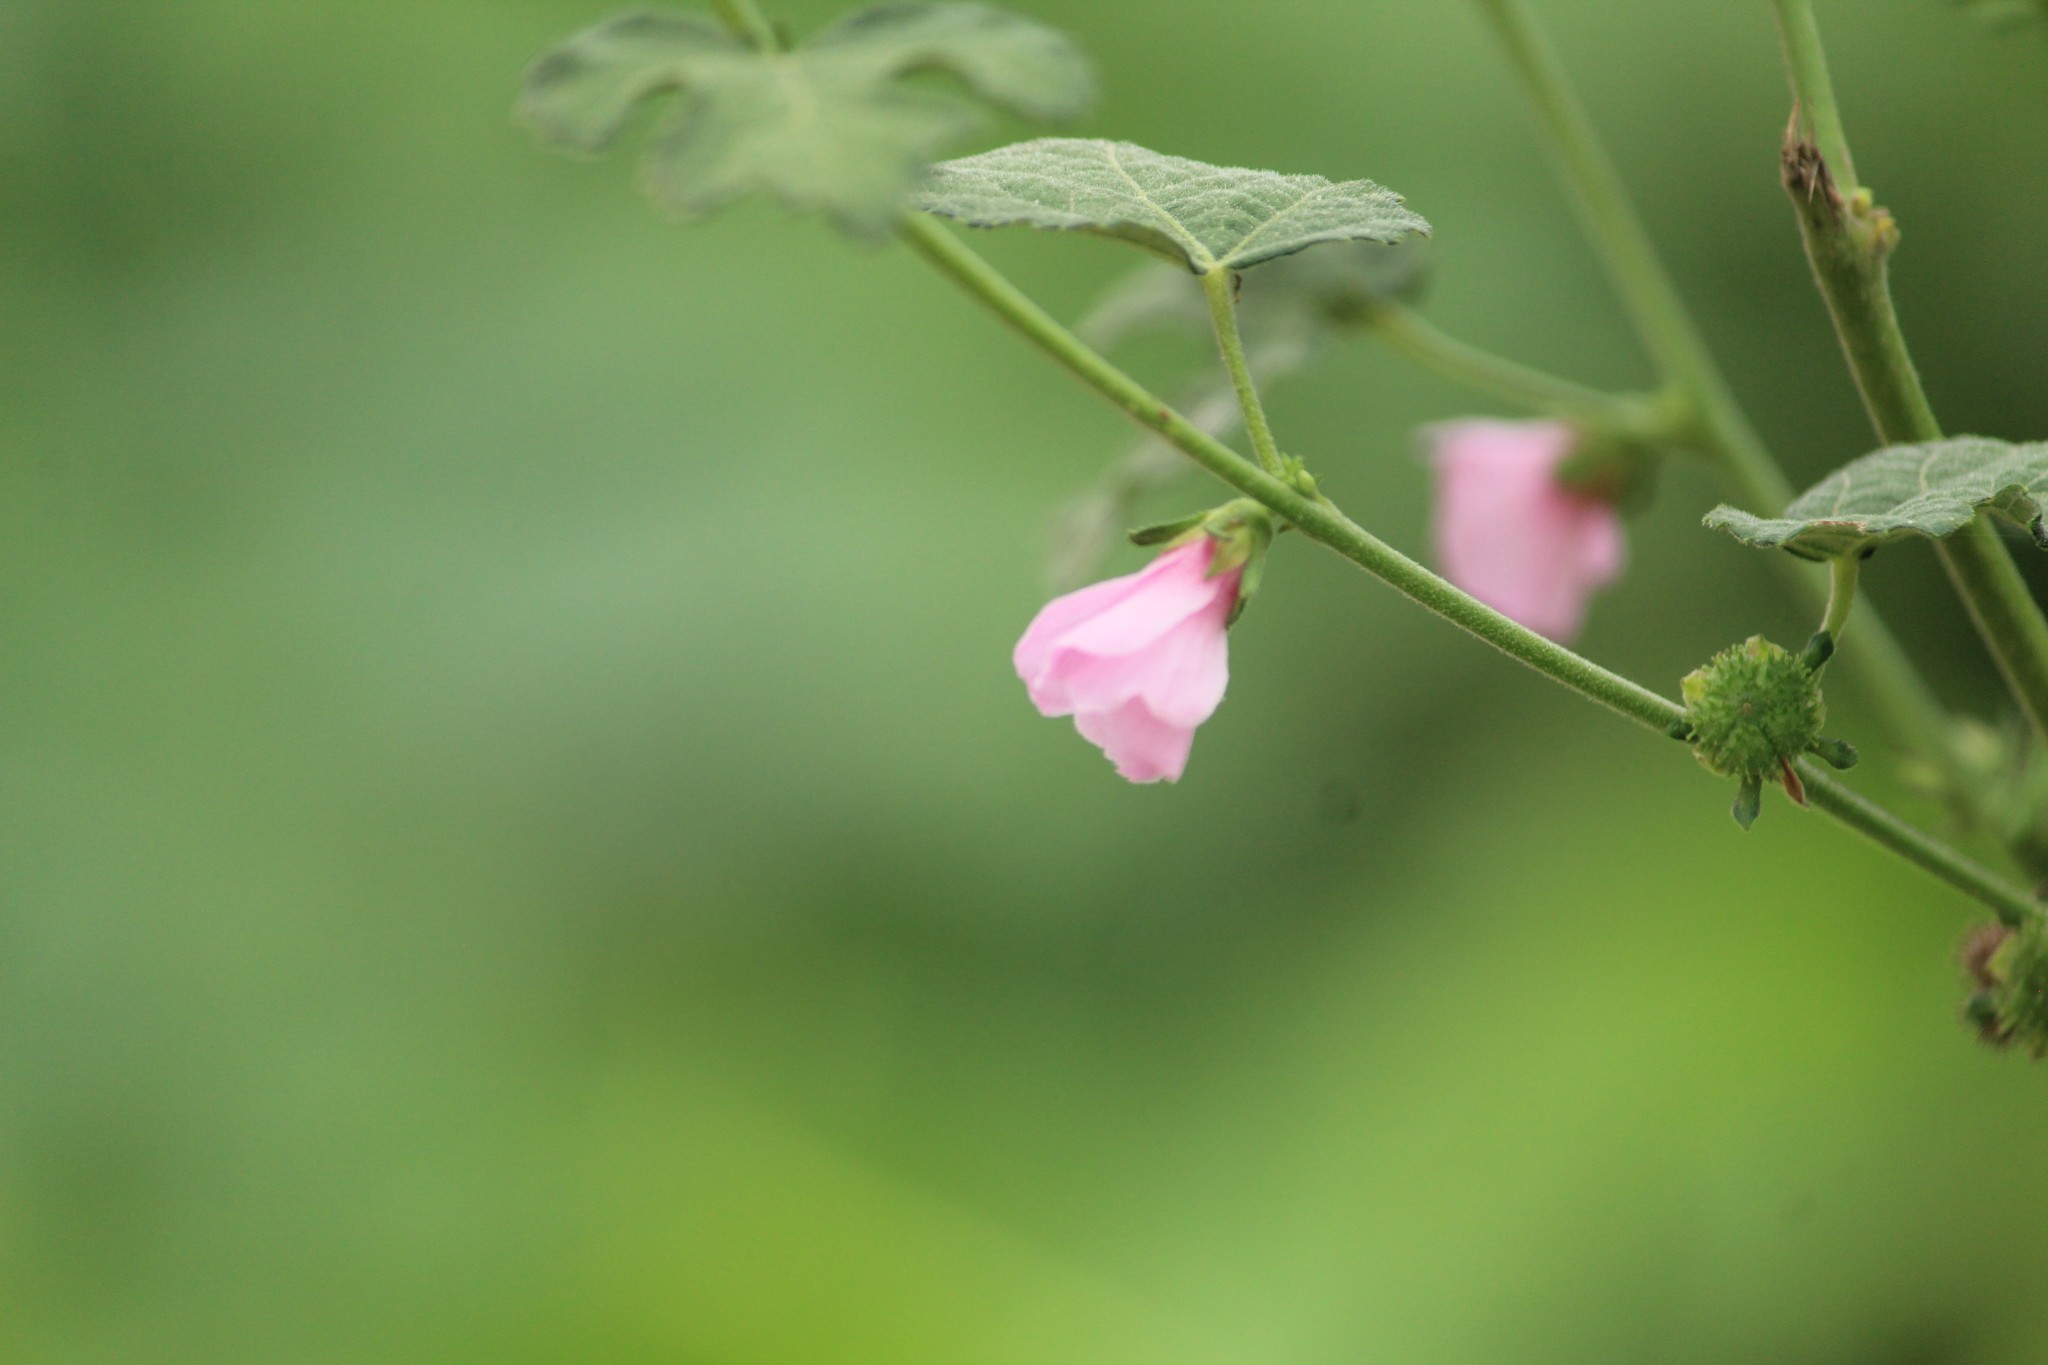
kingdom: Plantae
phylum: Tracheophyta
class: Magnoliopsida
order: Malvales
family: Malvaceae
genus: Urena
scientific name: Urena lobata
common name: Caesarweed
